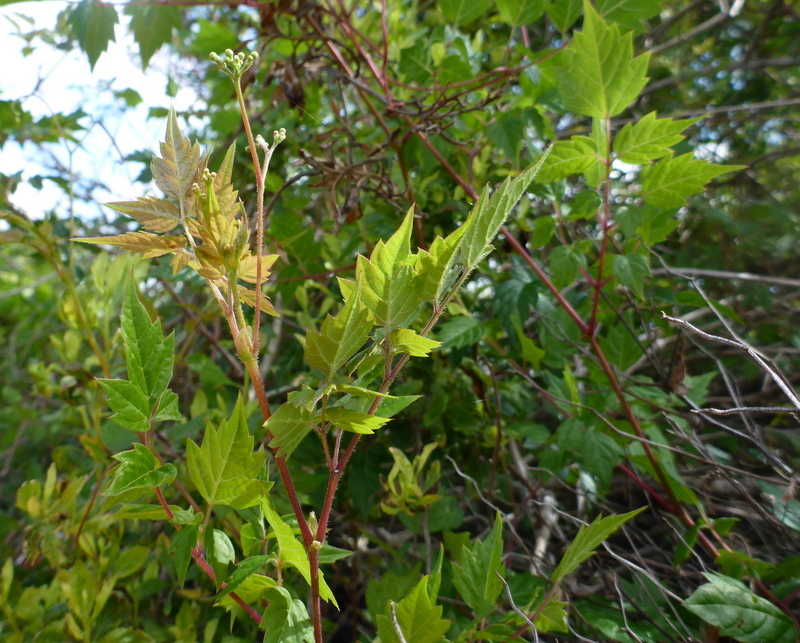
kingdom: Plantae
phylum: Tracheophyta
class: Magnoliopsida
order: Vitales
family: Vitaceae
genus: Nekemias
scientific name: Nekemias arborea
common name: Peppervine
